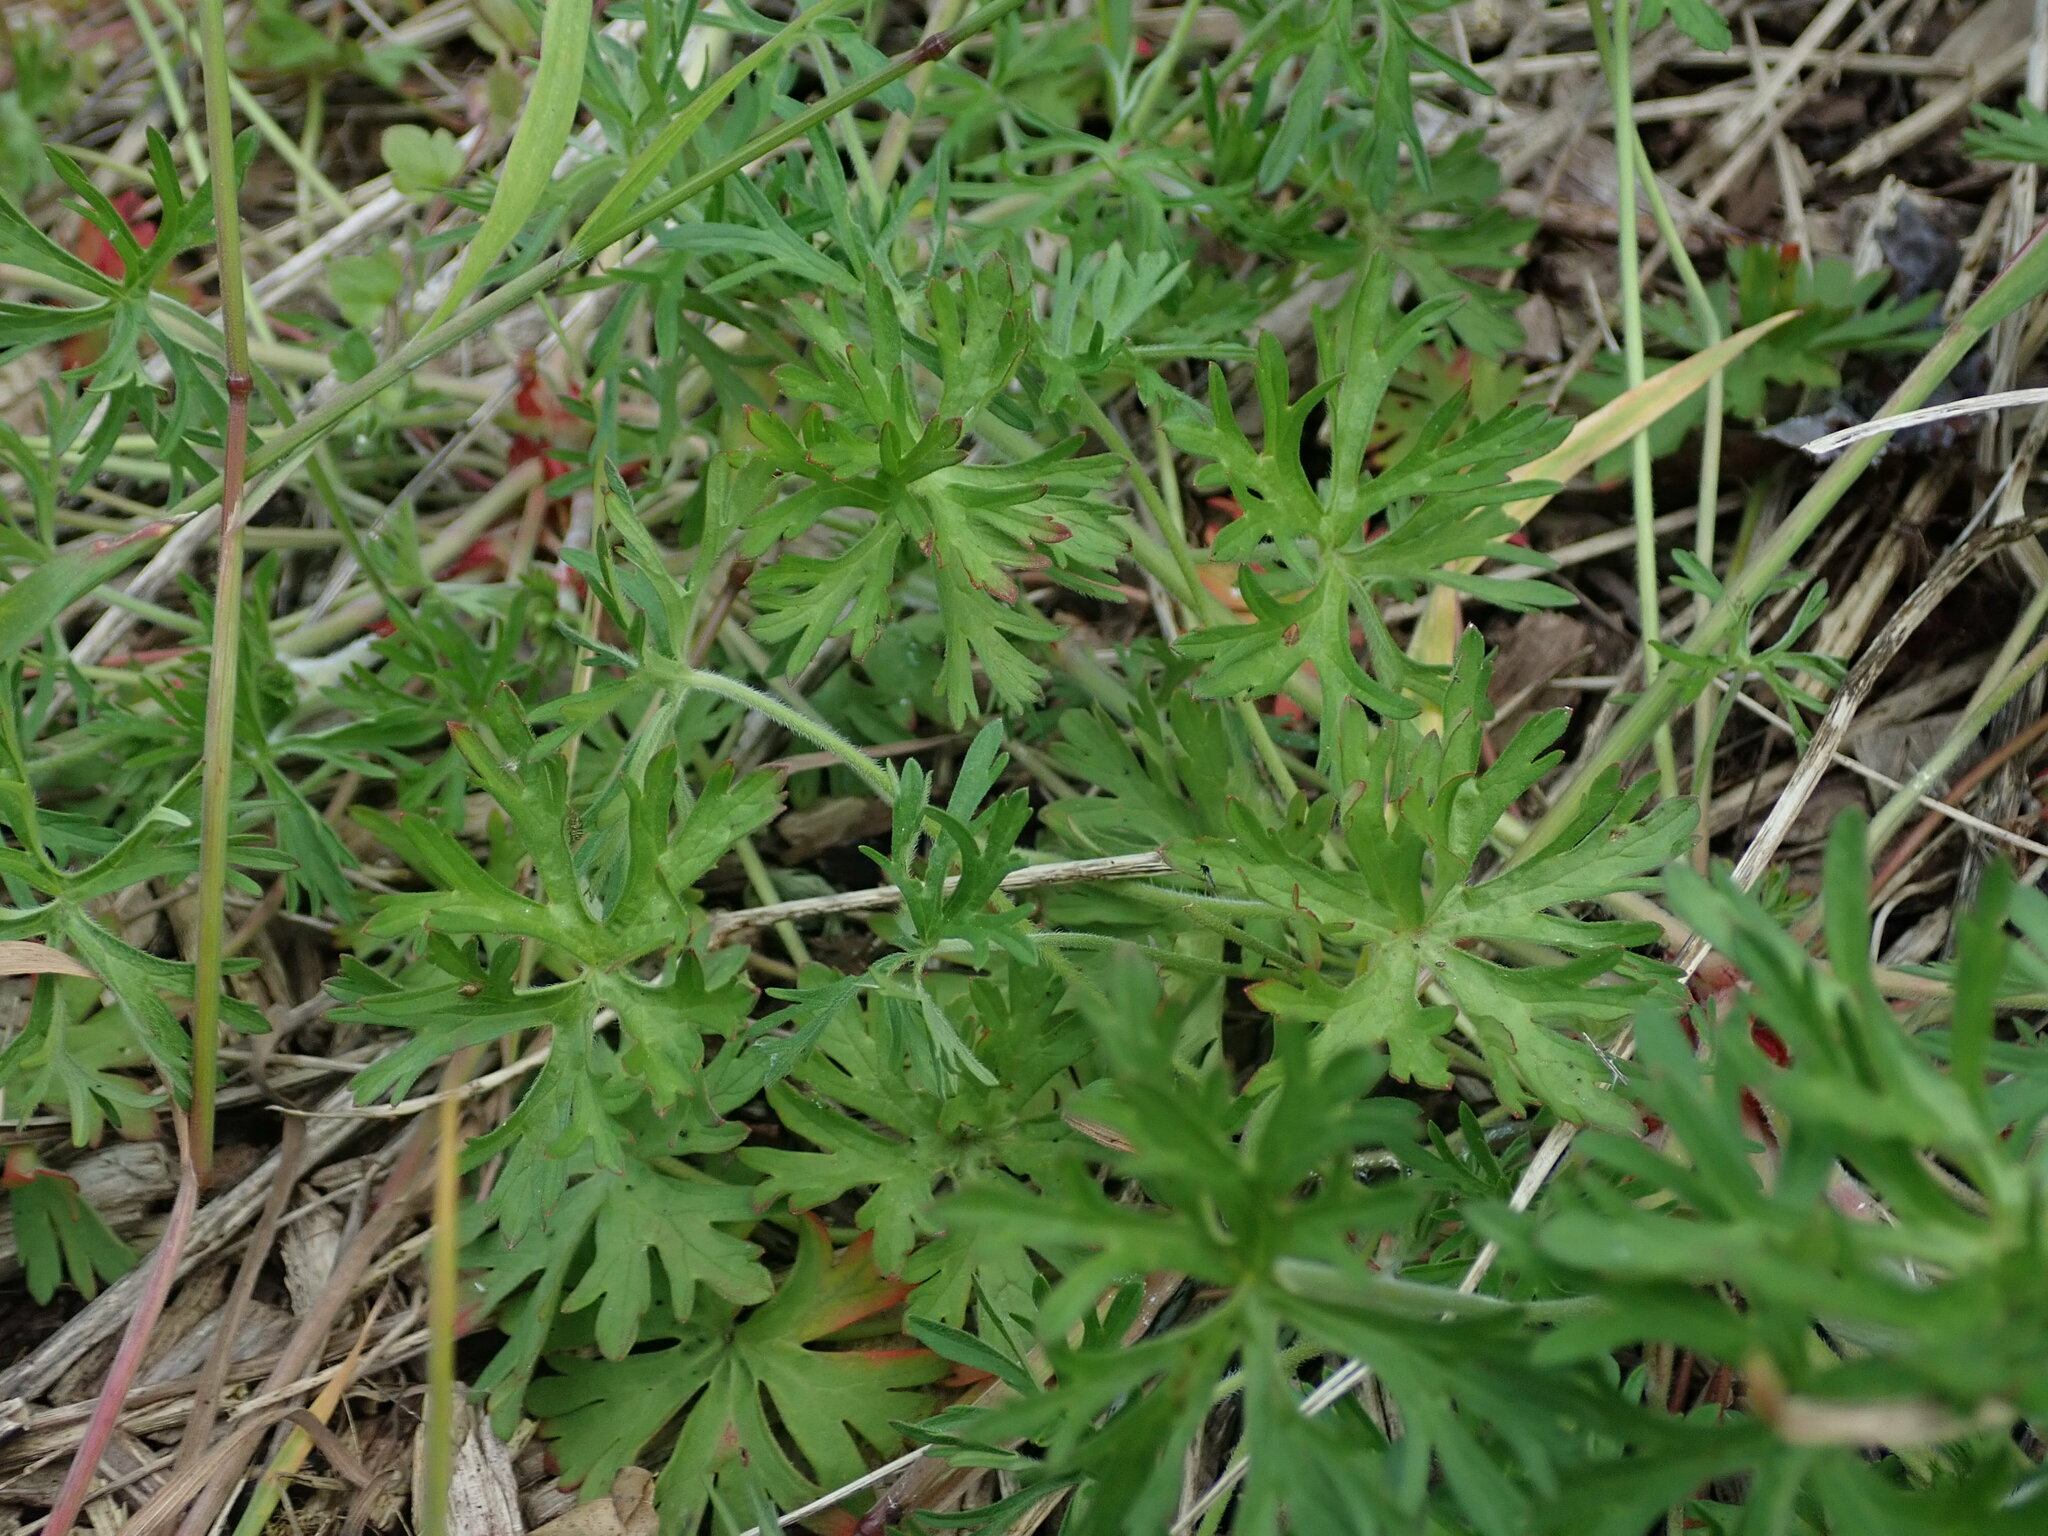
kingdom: Plantae
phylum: Tracheophyta
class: Magnoliopsida
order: Geraniales
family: Geraniaceae
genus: Geranium
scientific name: Geranium dissectum
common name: Cut-leaved crane's-bill
